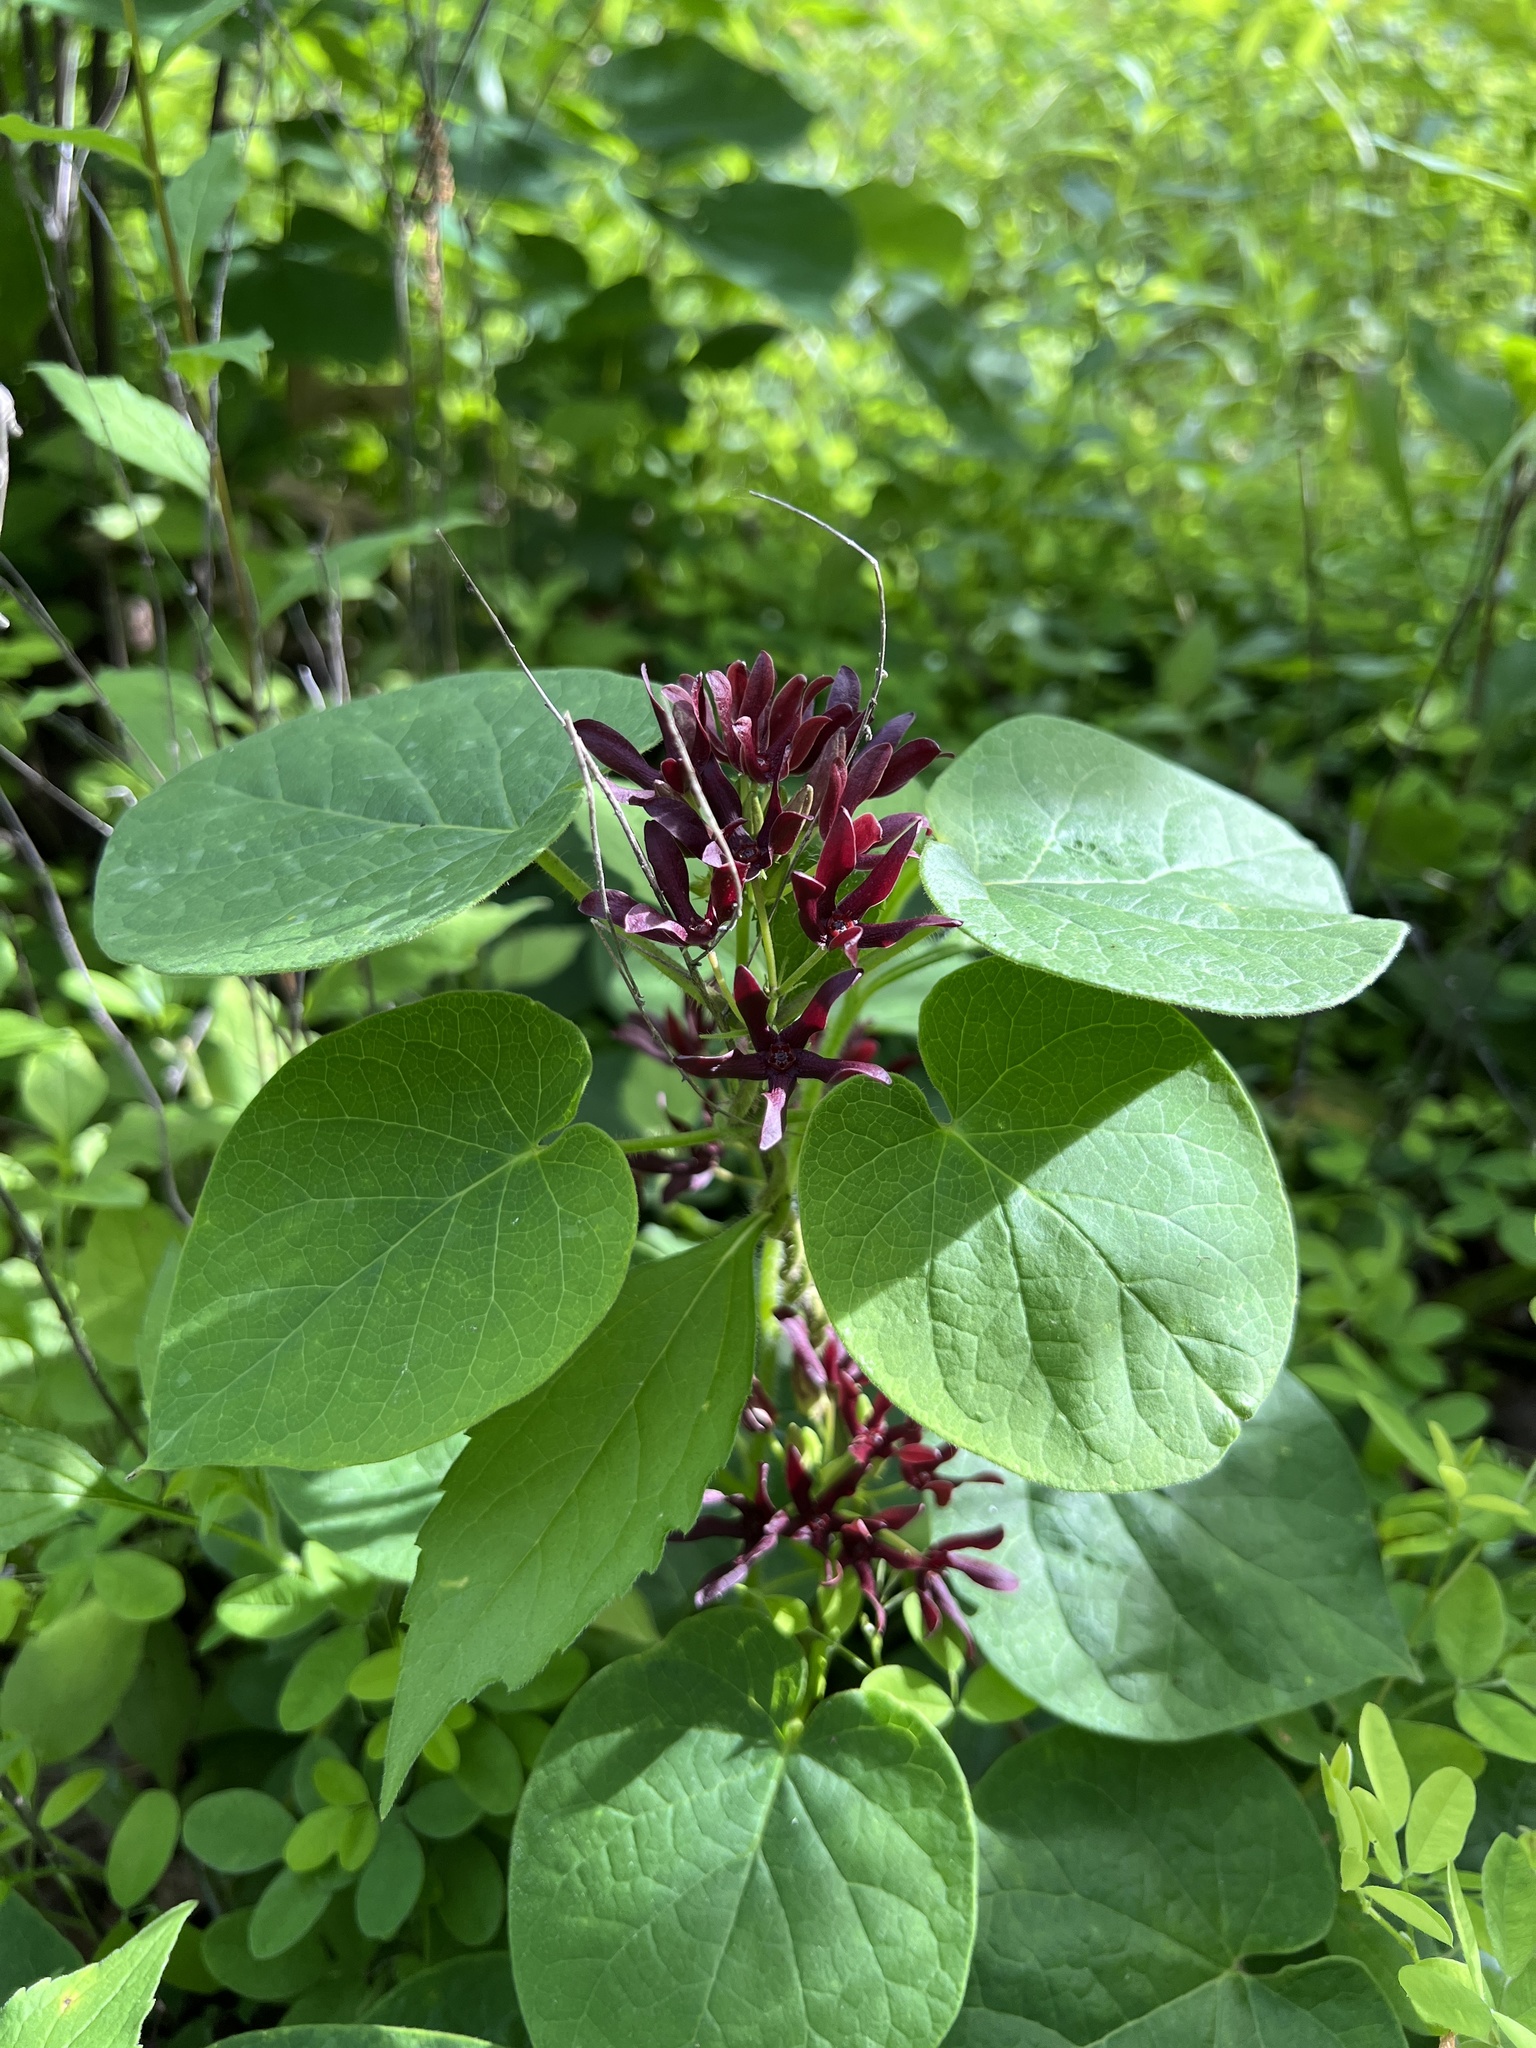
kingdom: Plantae
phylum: Tracheophyta
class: Magnoliopsida
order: Gentianales
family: Apocynaceae
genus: Matelea
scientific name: Matelea decipiens
